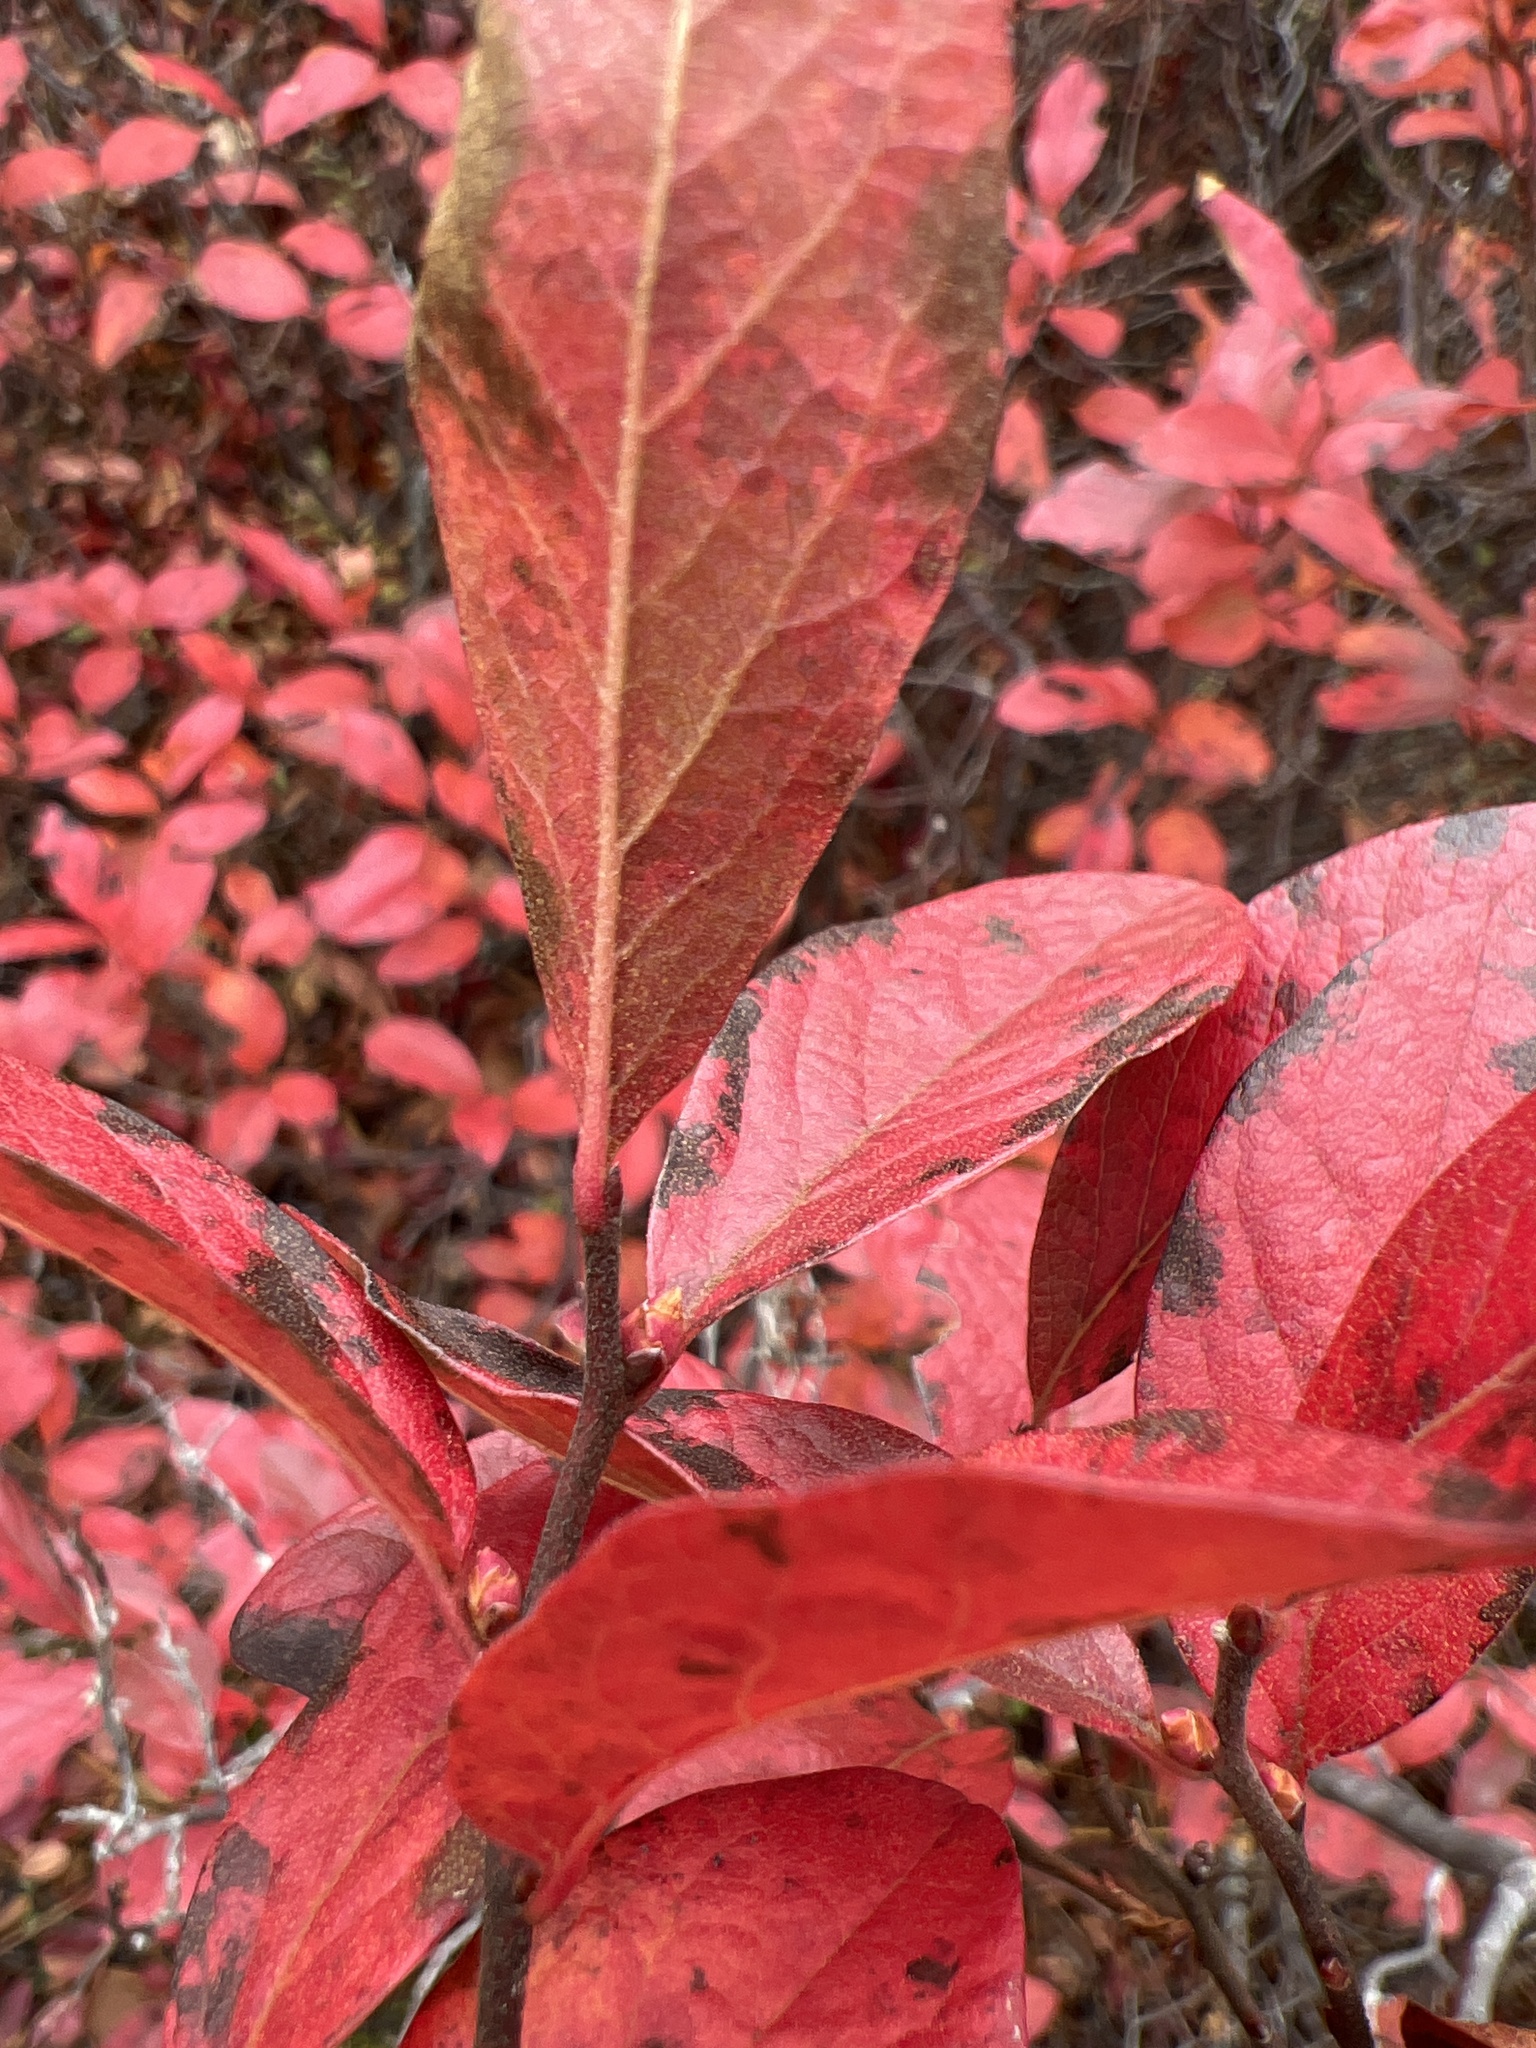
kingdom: Plantae
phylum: Tracheophyta
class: Magnoliopsida
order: Ericales
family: Ericaceae
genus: Gaylussacia
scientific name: Gaylussacia baccata
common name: Black huckleberry
